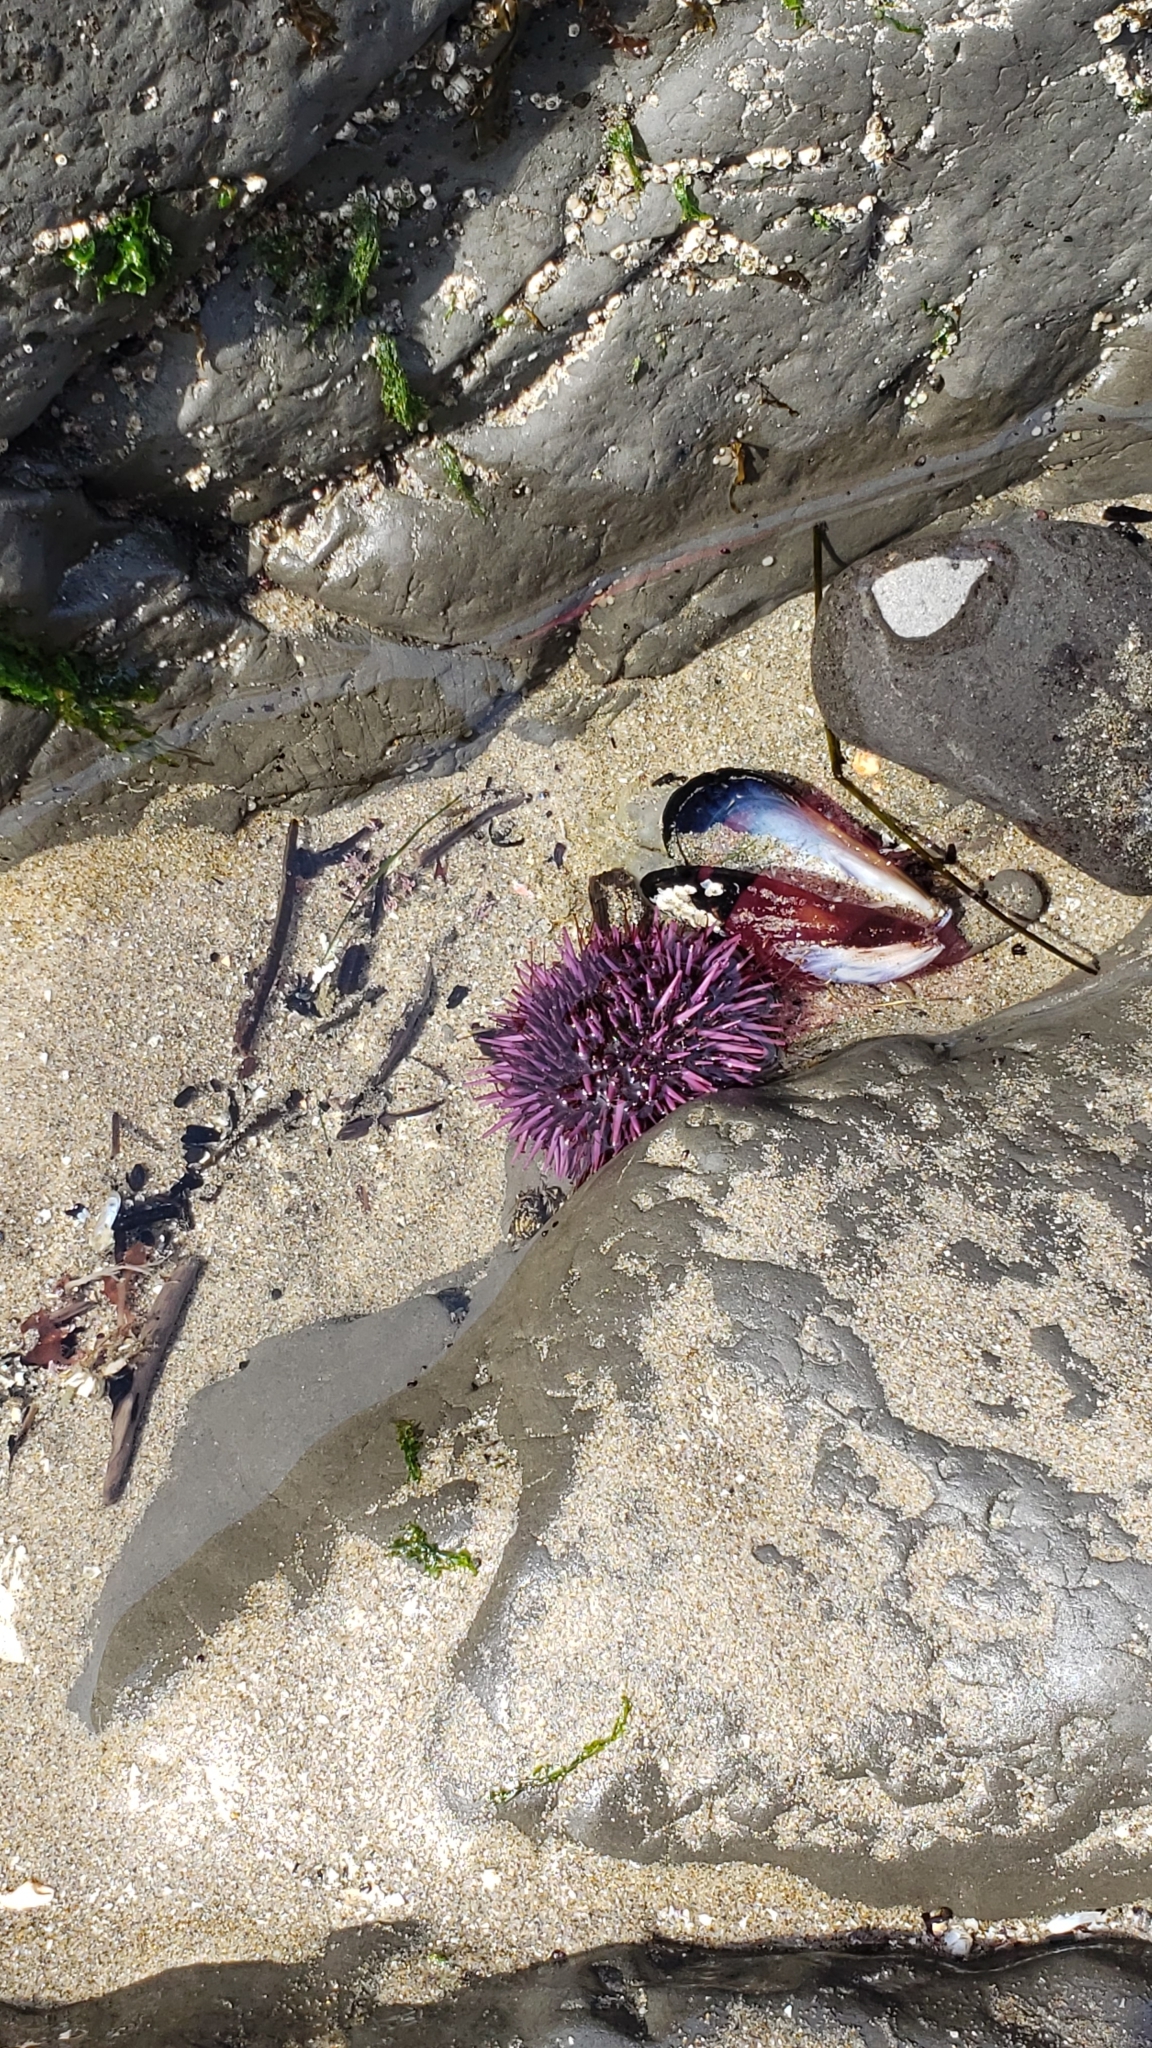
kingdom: Animalia
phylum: Echinodermata
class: Echinoidea
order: Camarodonta
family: Strongylocentrotidae
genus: Strongylocentrotus
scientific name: Strongylocentrotus purpuratus
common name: Purple sea urchin
